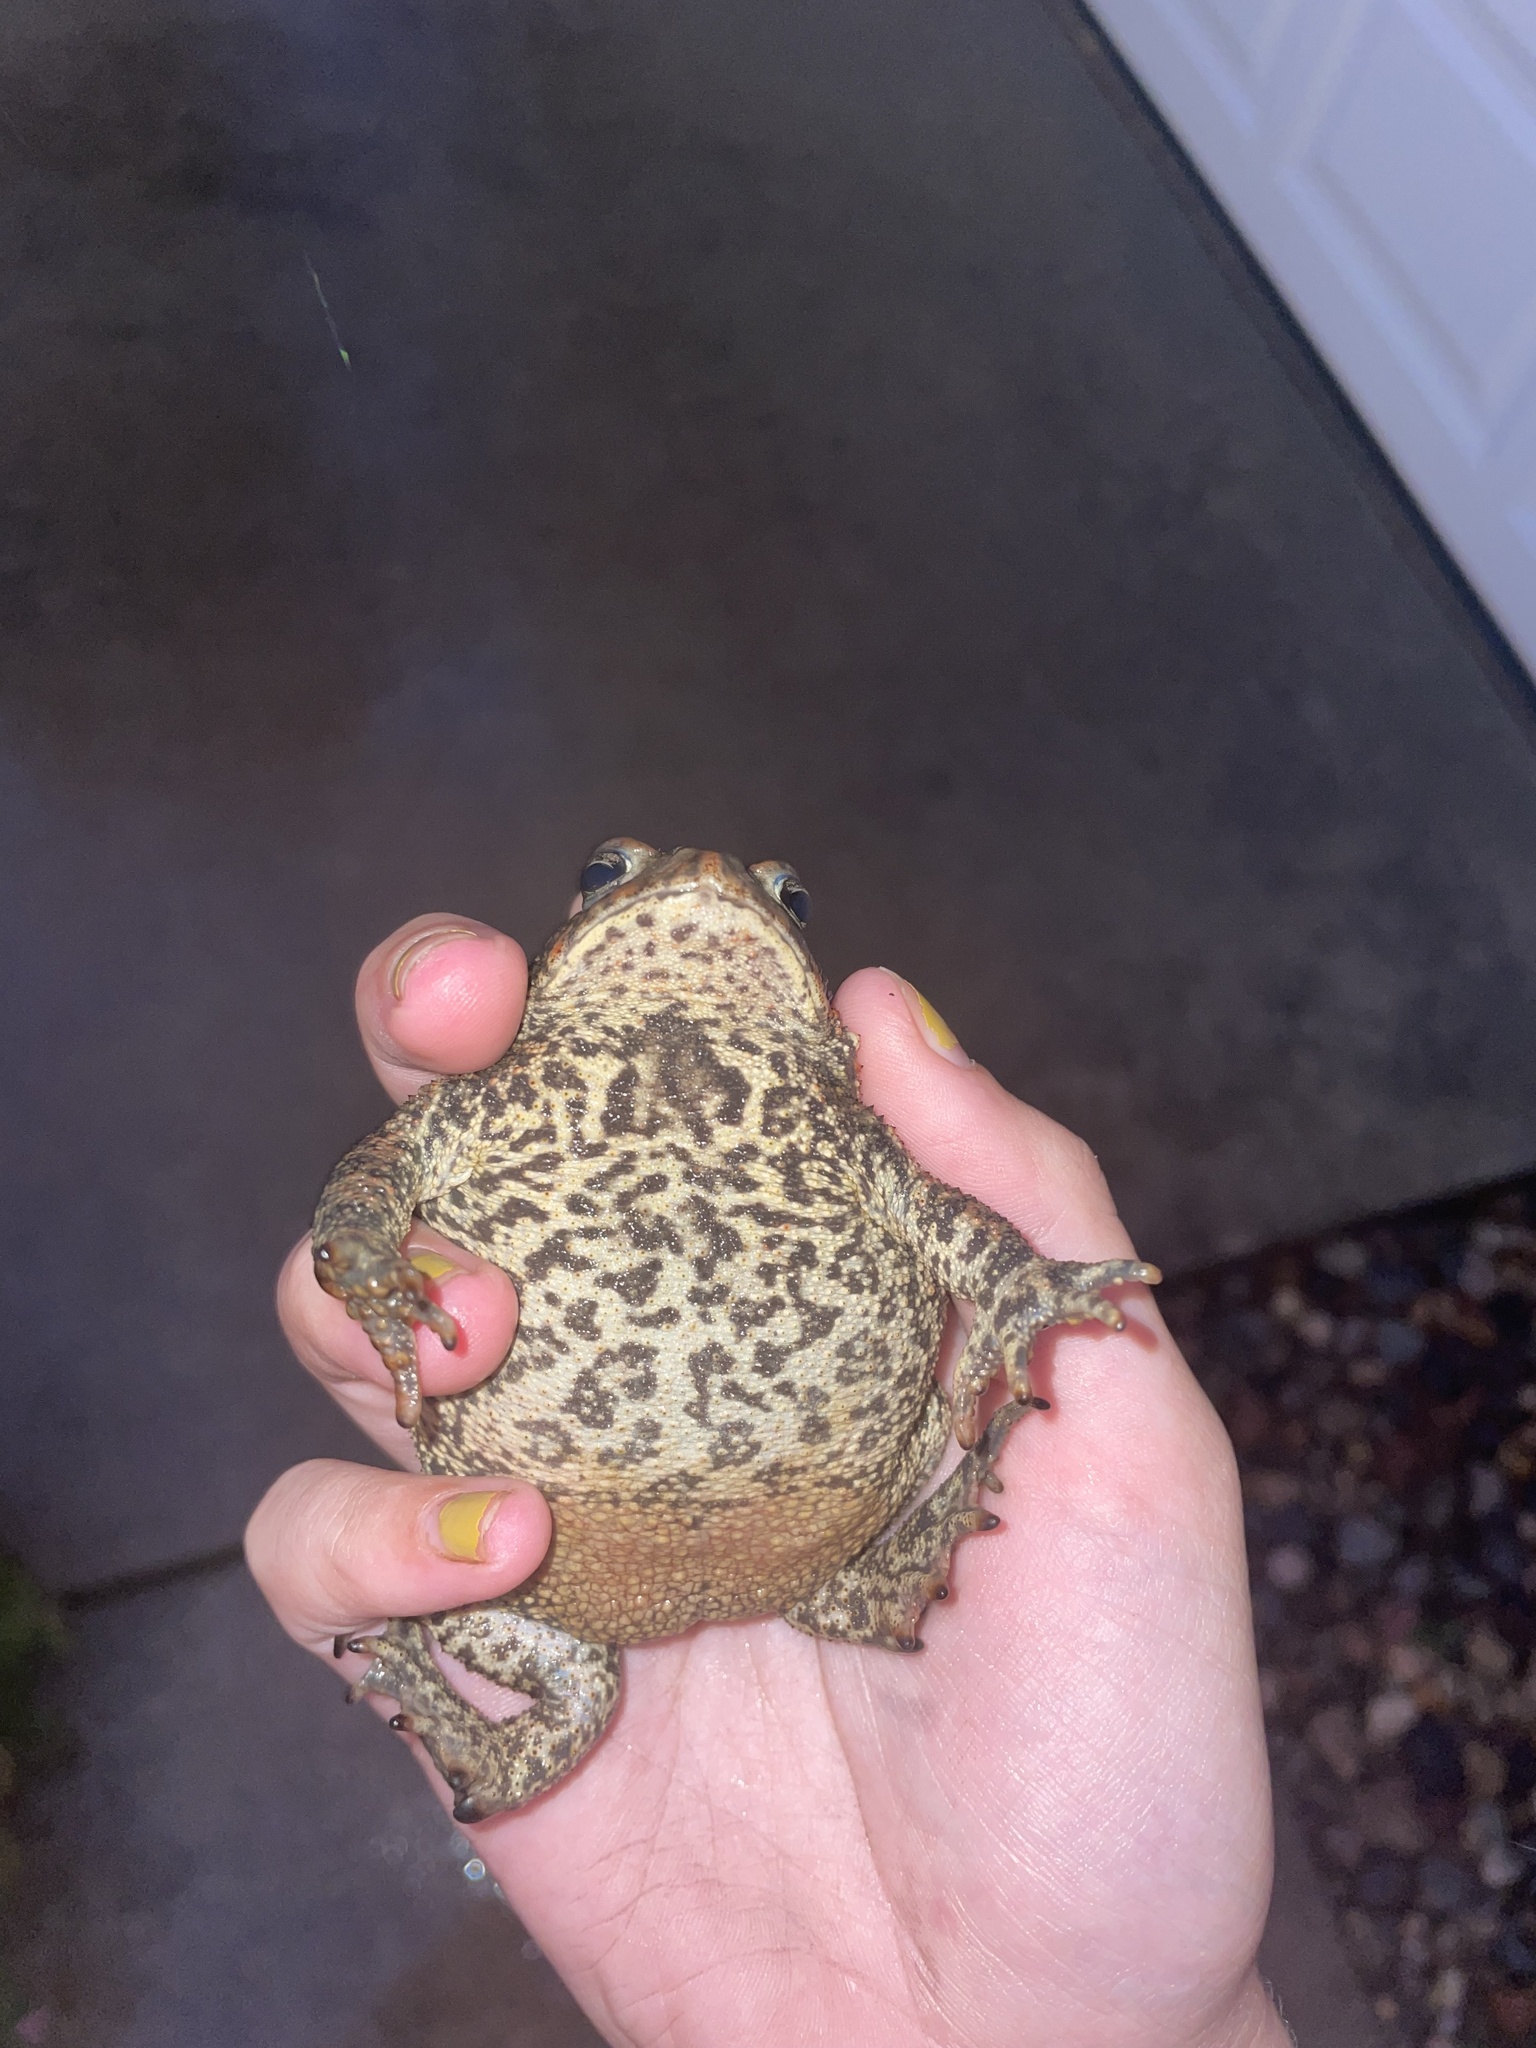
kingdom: Animalia
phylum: Chordata
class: Amphibia
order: Anura
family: Bufonidae
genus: Anaxyrus
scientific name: Anaxyrus americanus
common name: American toad
